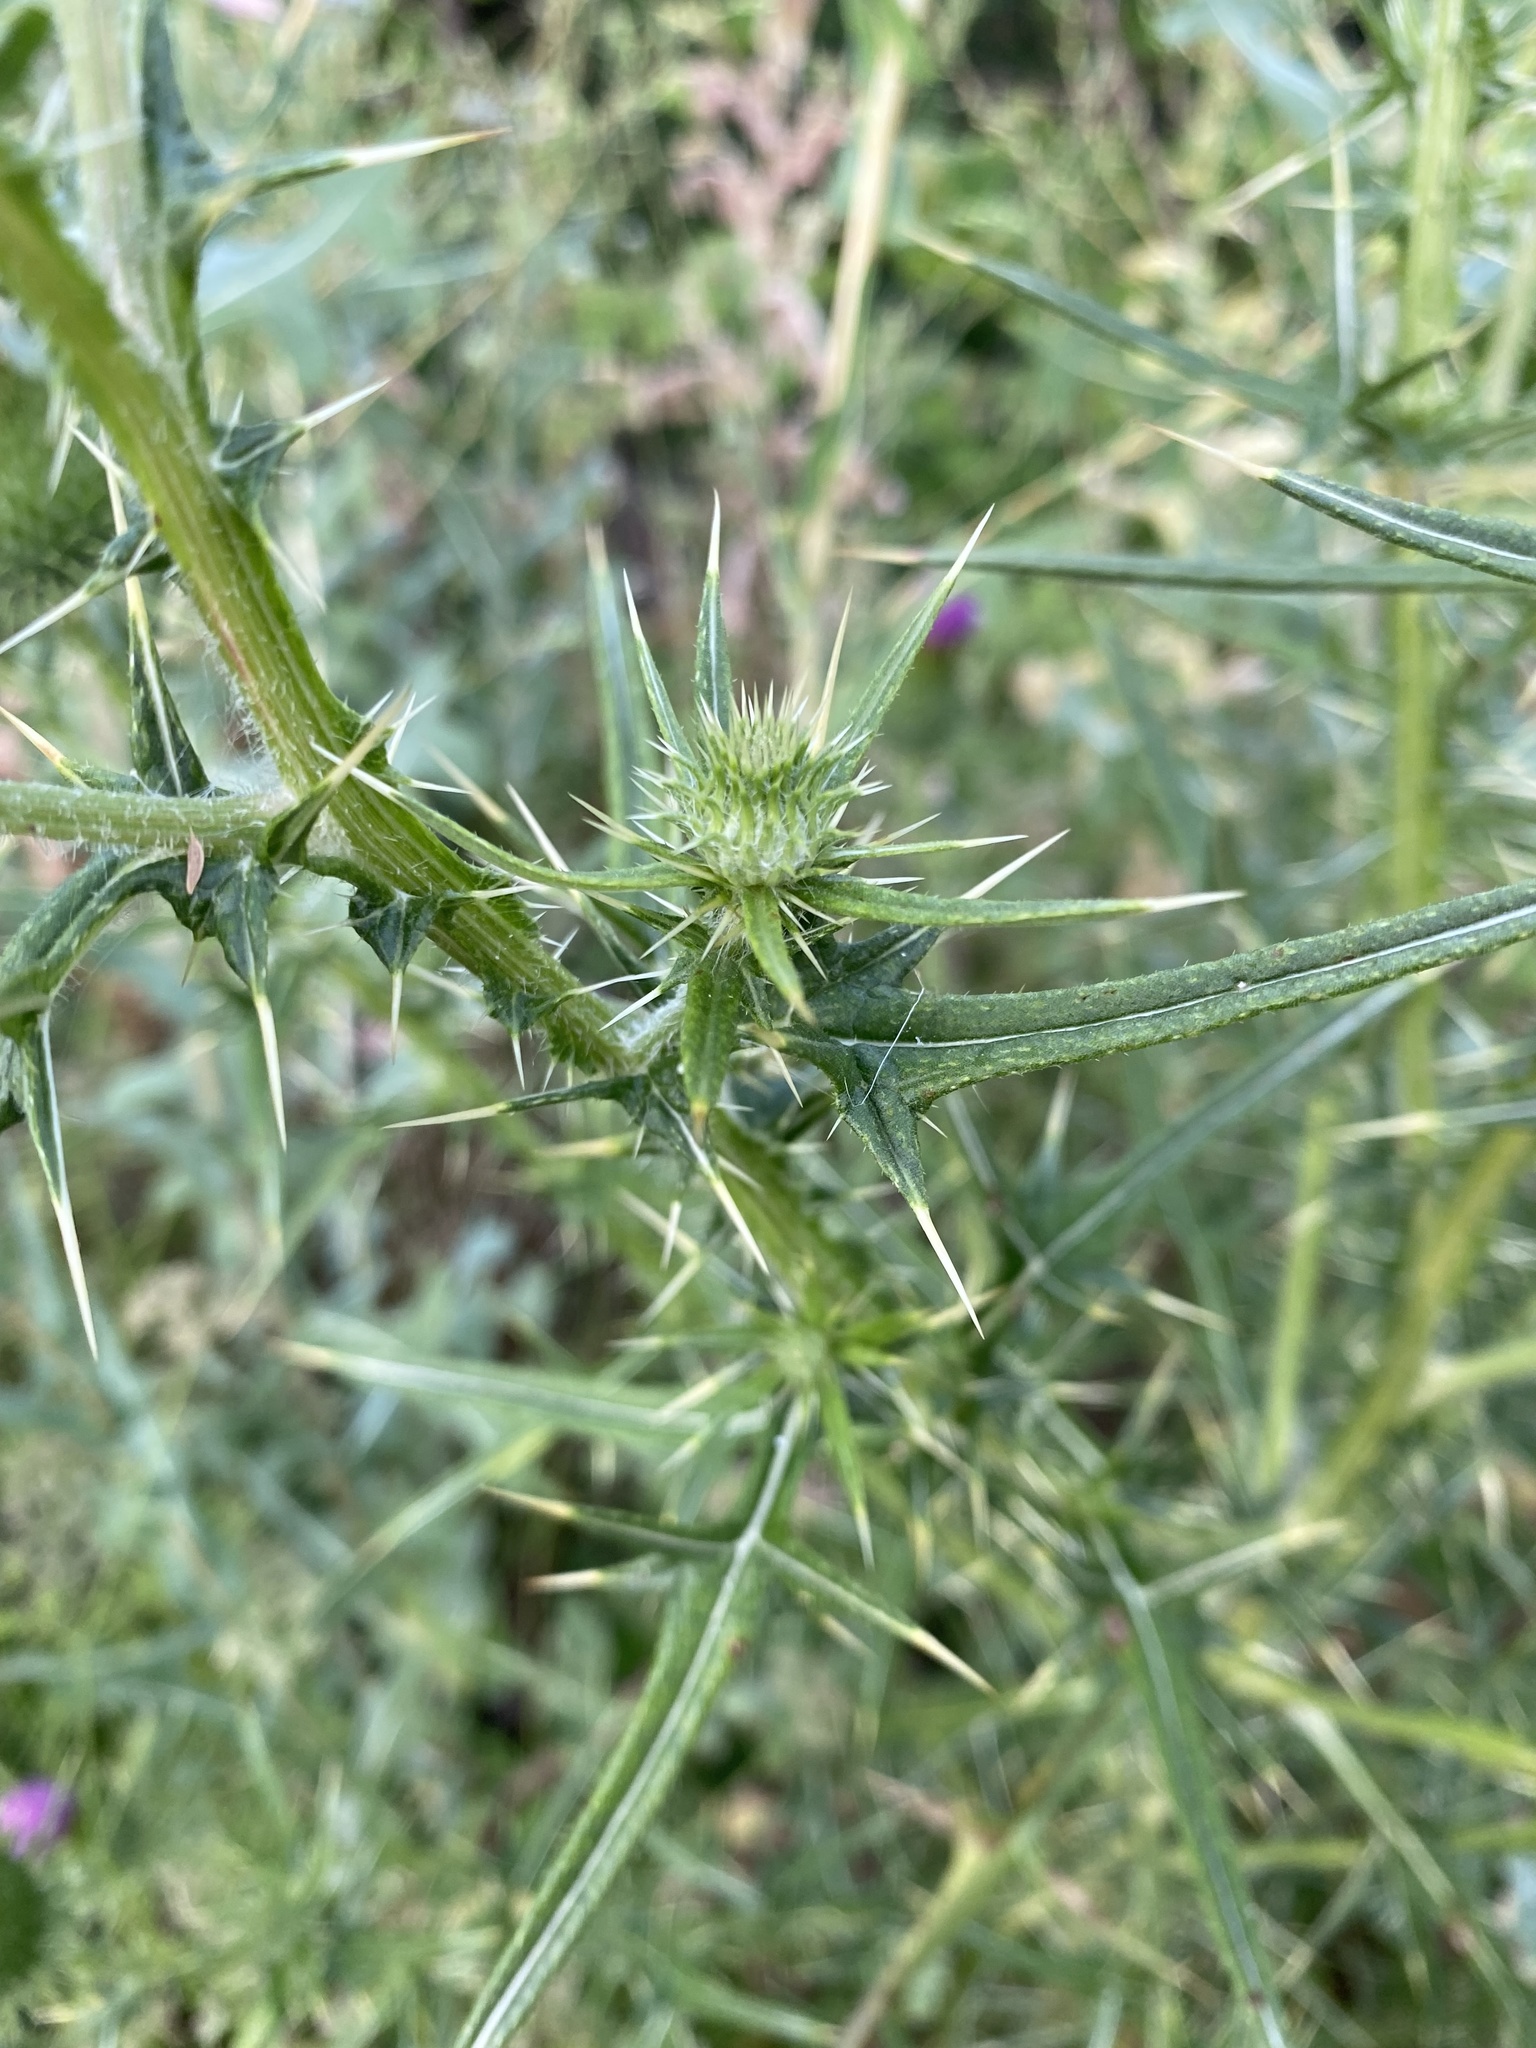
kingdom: Plantae
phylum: Tracheophyta
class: Magnoliopsida
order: Asterales
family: Asteraceae
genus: Cirsium
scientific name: Cirsium vulgare
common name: Bull thistle
